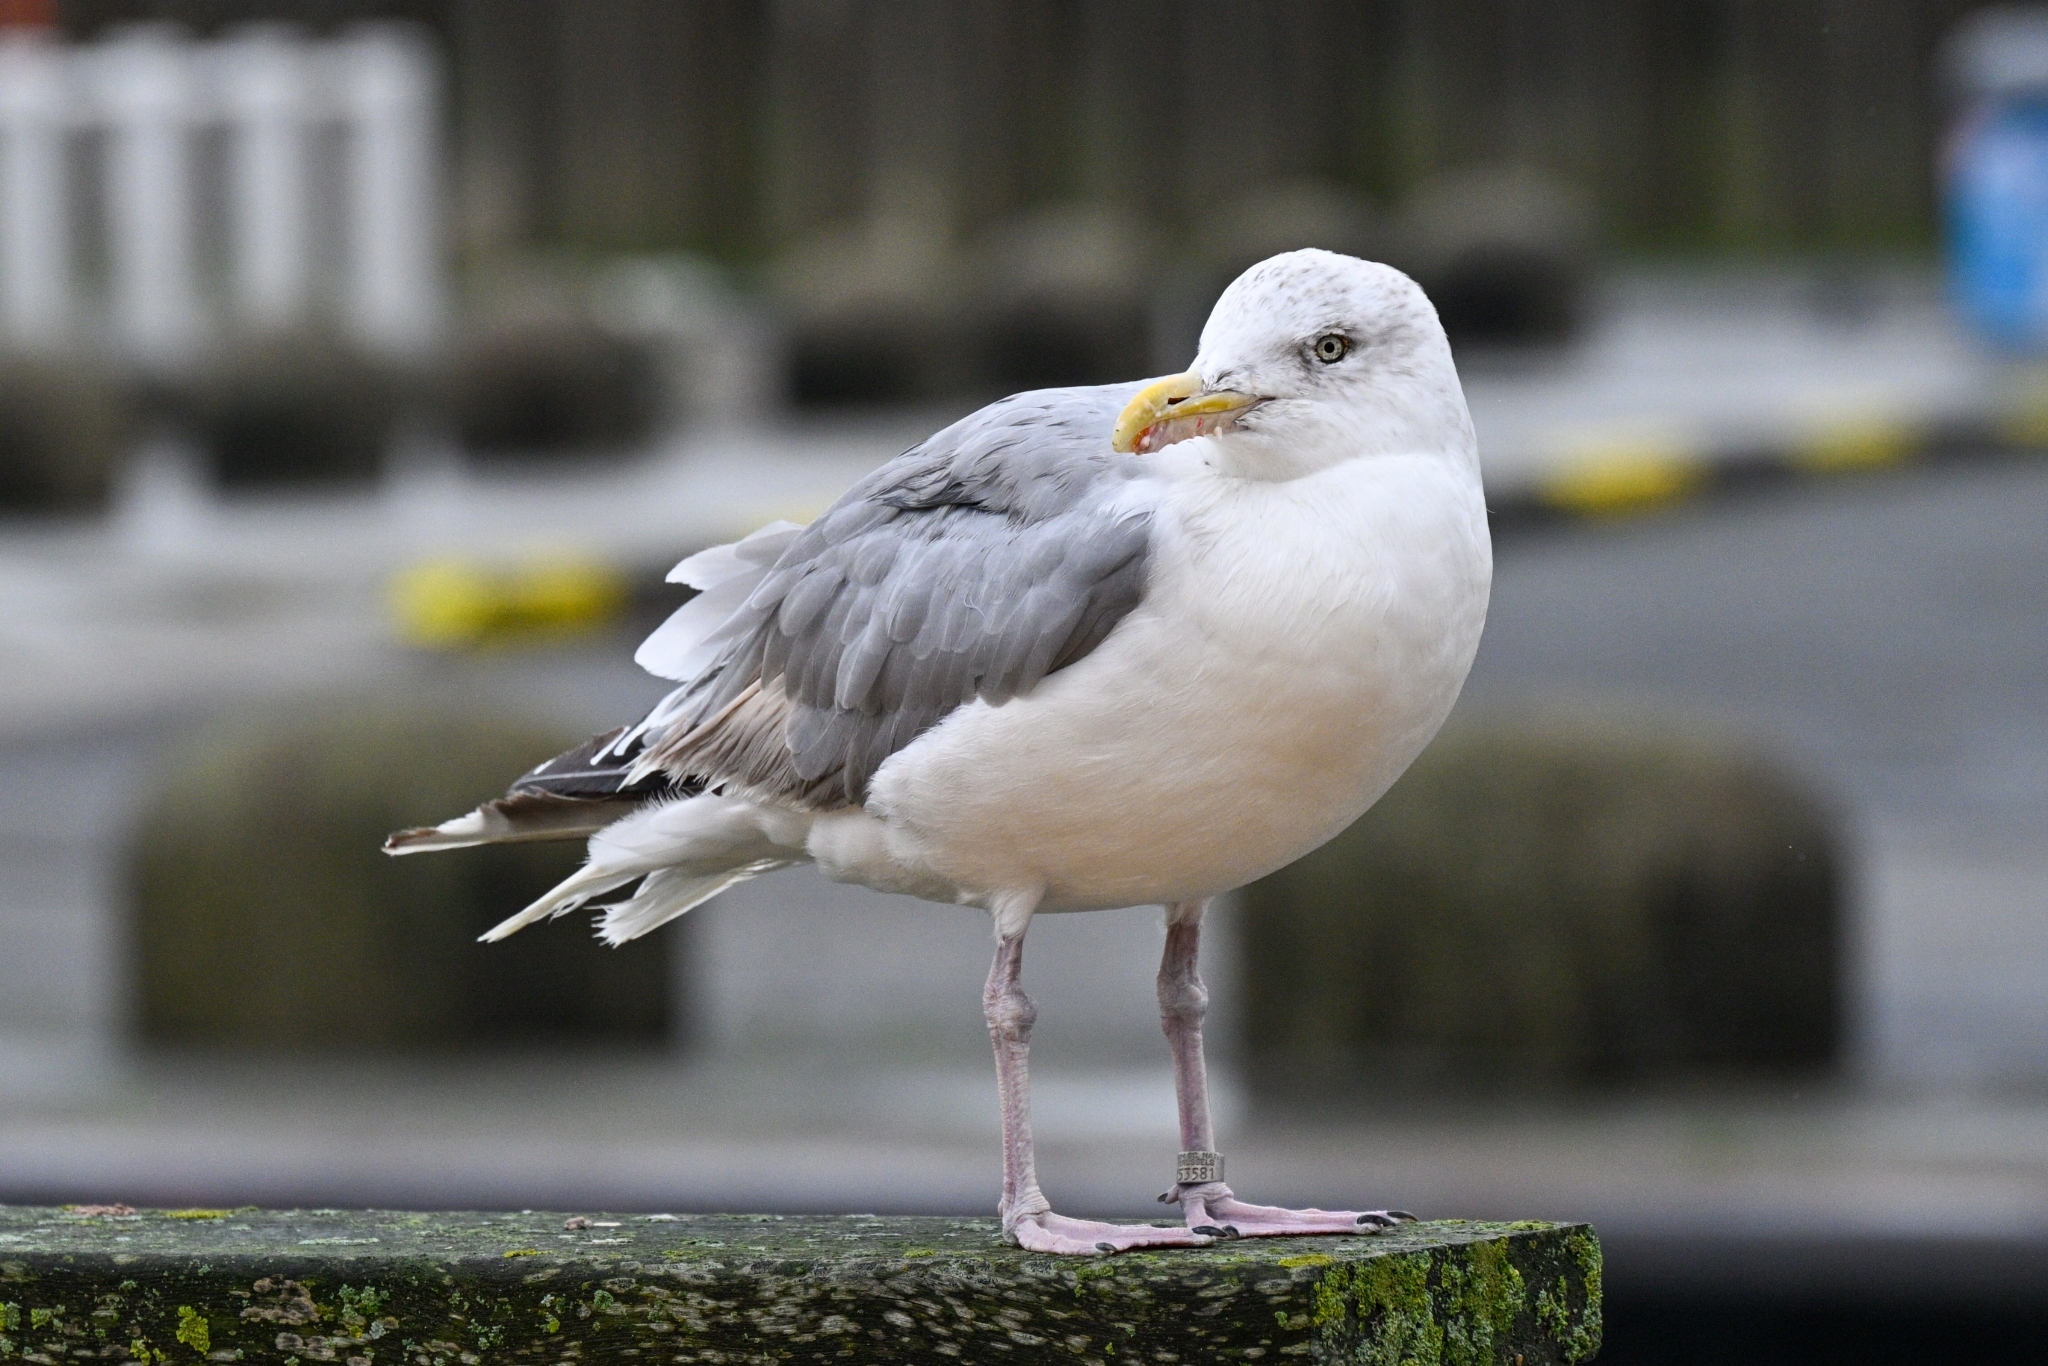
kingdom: Animalia
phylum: Chordata
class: Aves
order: Charadriiformes
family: Laridae
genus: Larus
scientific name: Larus argentatus
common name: Herring gull
